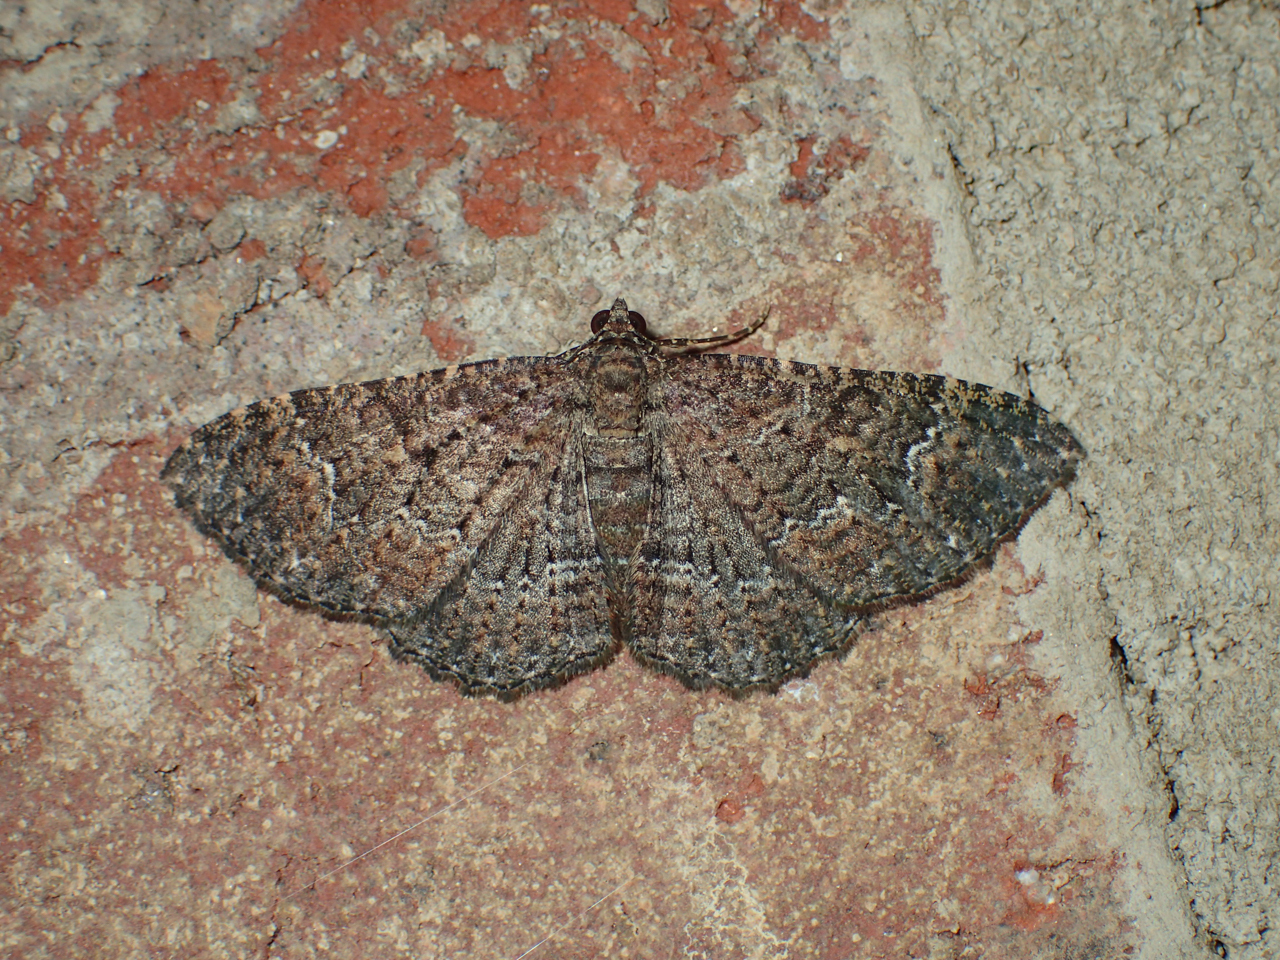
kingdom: Animalia
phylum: Arthropoda
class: Insecta
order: Lepidoptera
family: Geometridae
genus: Disclisioprocta
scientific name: Disclisioprocta stellata
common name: Somber carpet
